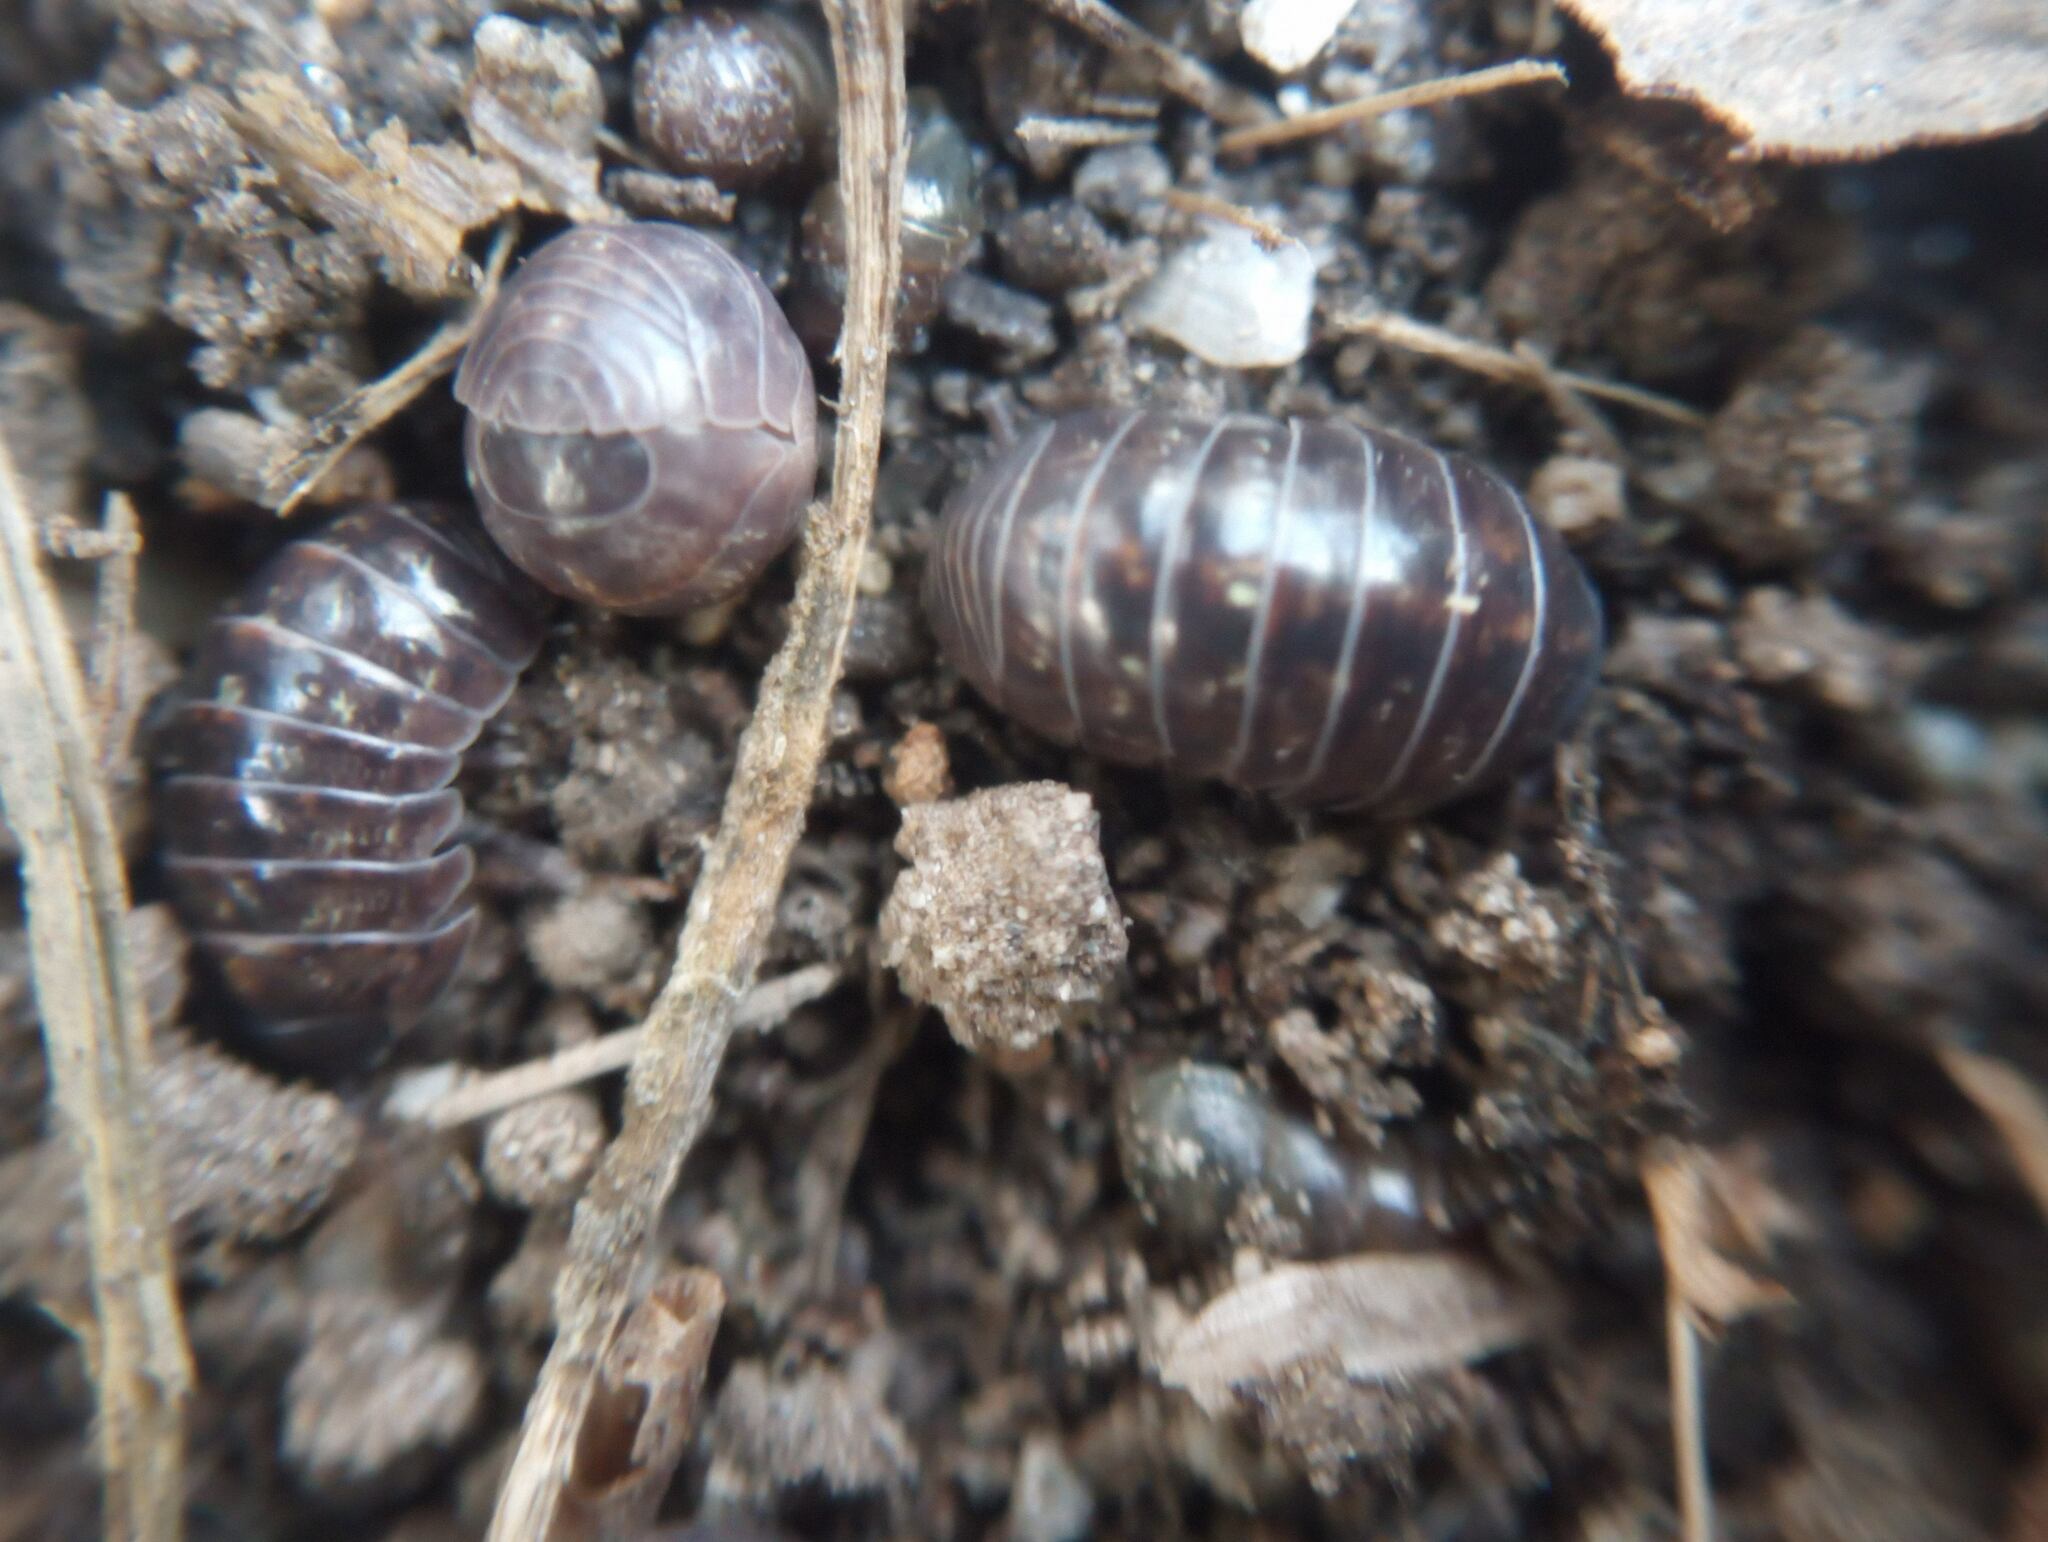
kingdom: Animalia
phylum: Arthropoda
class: Malacostraca
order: Isopoda
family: Armadillidiidae
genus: Armadillidium
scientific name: Armadillidium vulgare
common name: Common pill woodlouse
